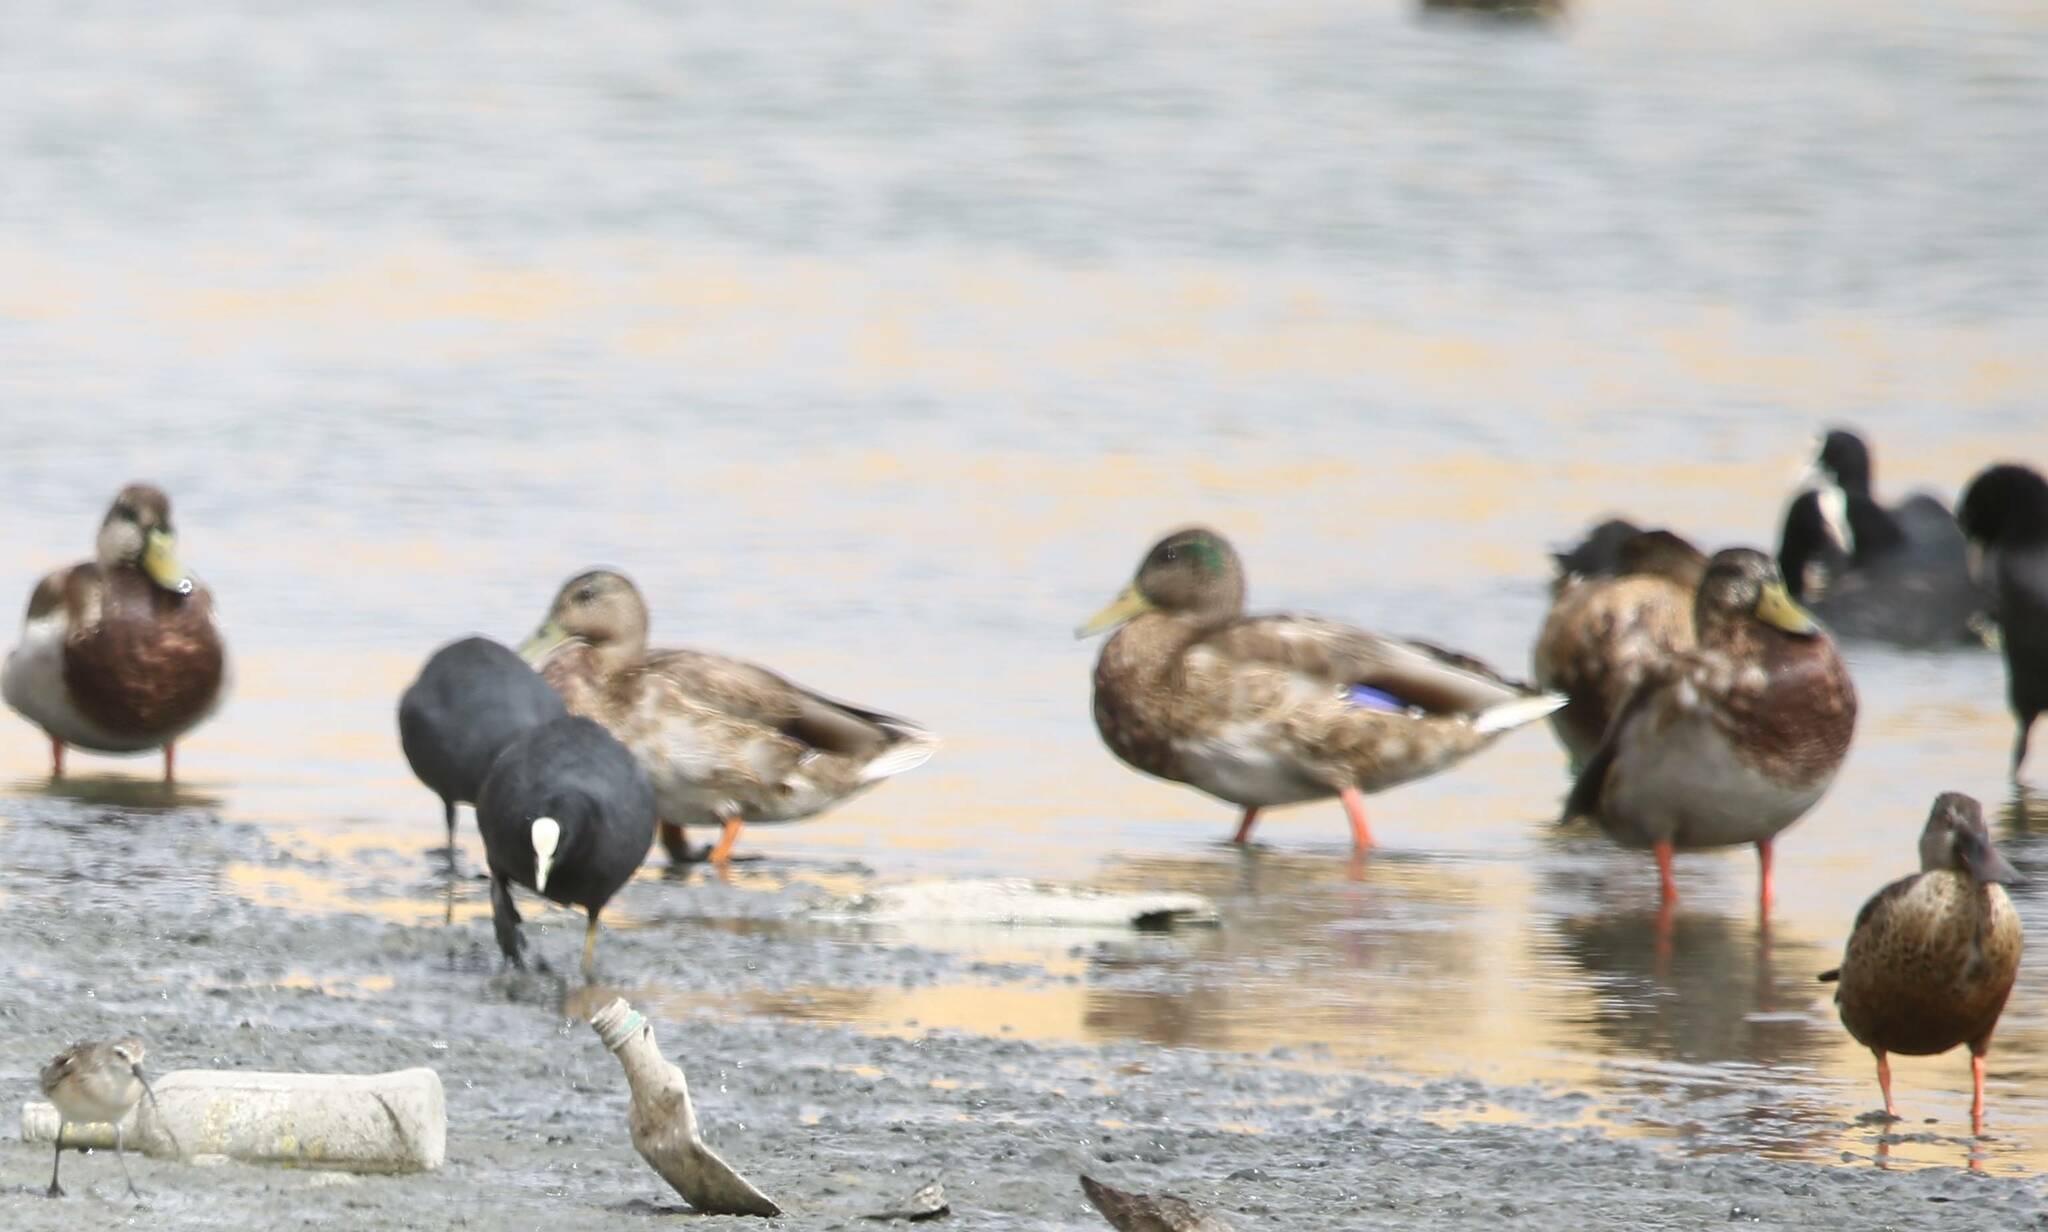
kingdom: Animalia
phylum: Chordata
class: Aves
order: Anseriformes
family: Anatidae
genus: Anas
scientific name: Anas platyrhynchos
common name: Mallard
